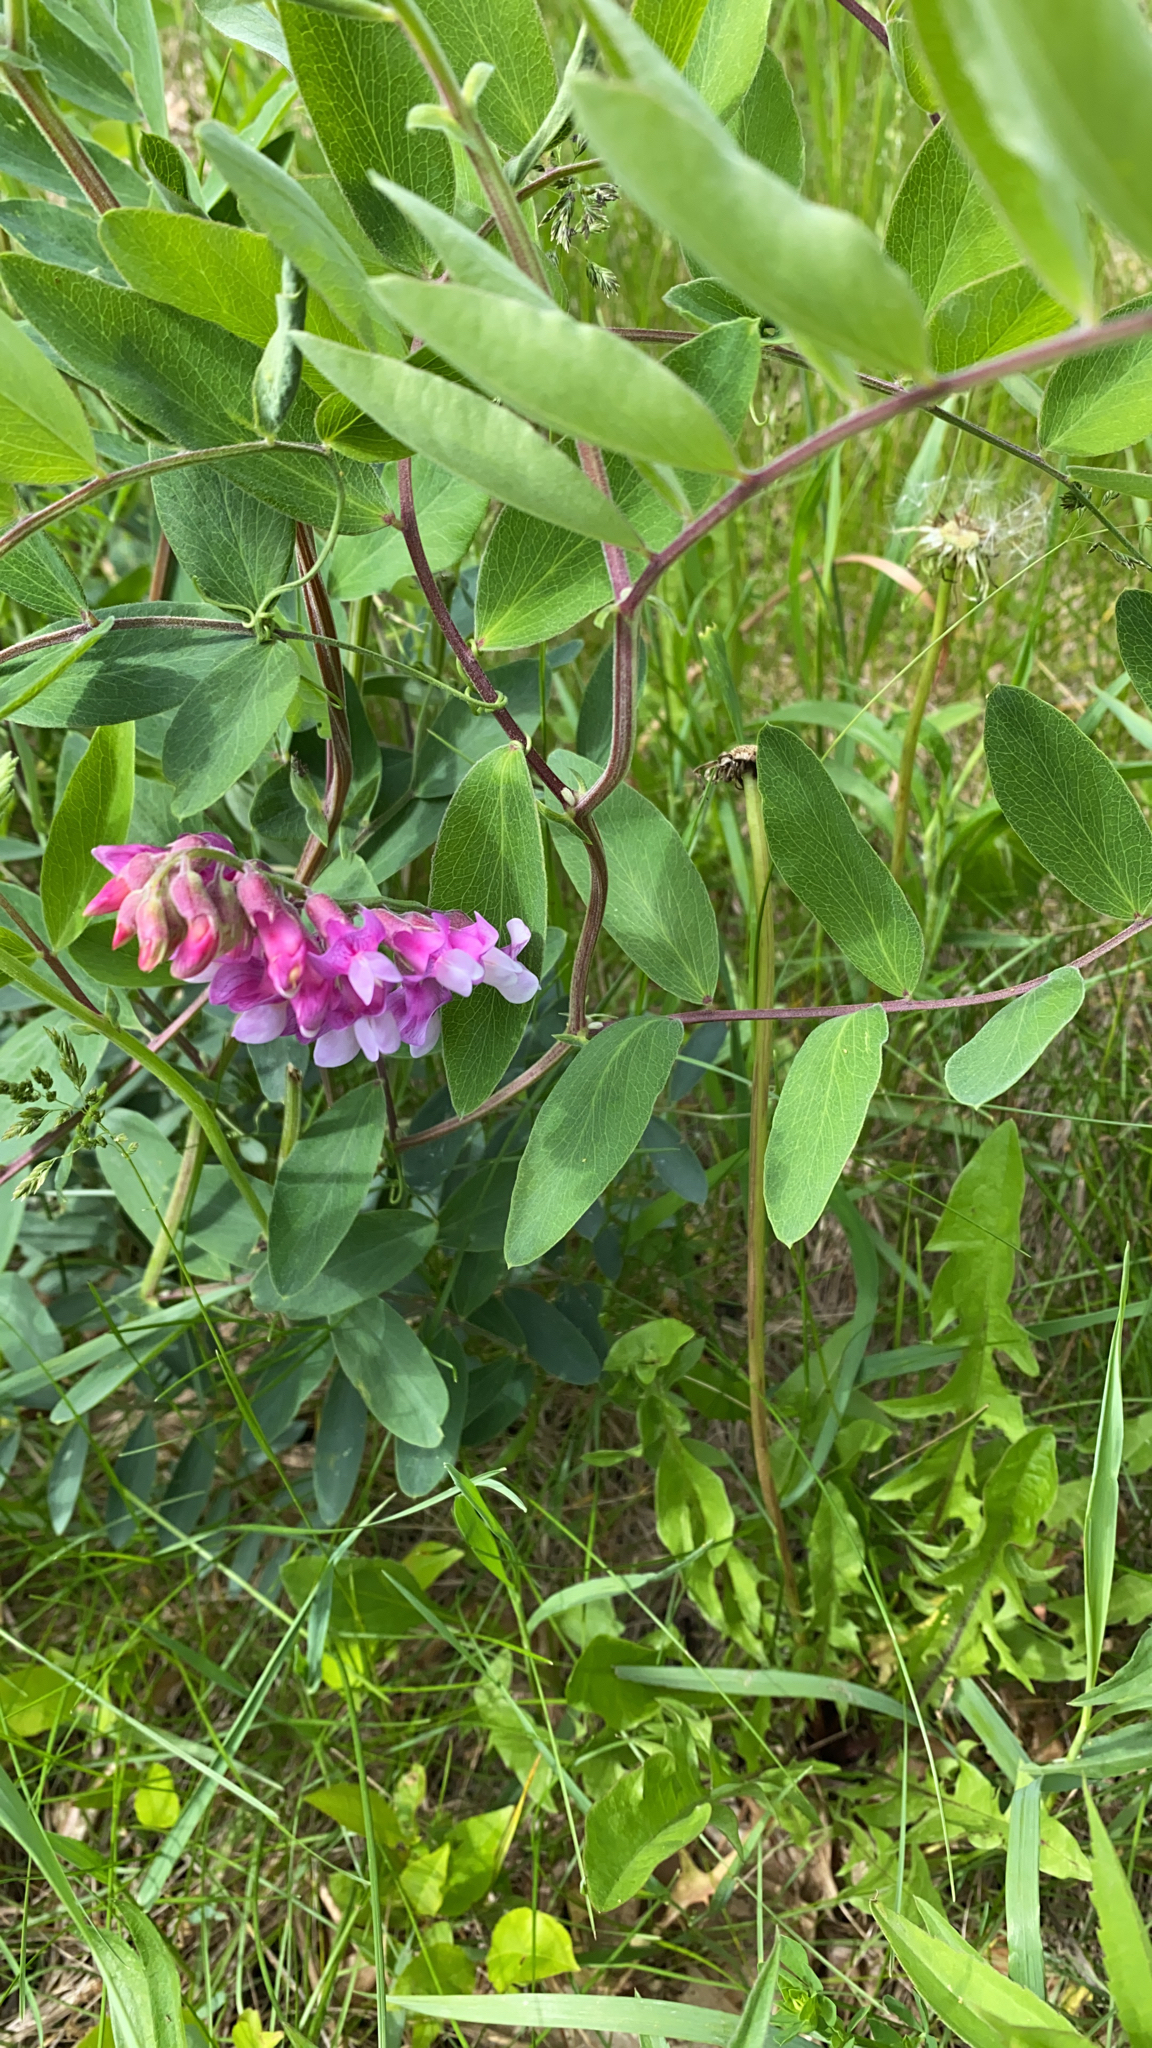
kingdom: Plantae
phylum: Tracheophyta
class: Magnoliopsida
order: Fabales
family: Fabaceae
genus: Lathyrus
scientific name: Lathyrus venosus
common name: Forest-pea
